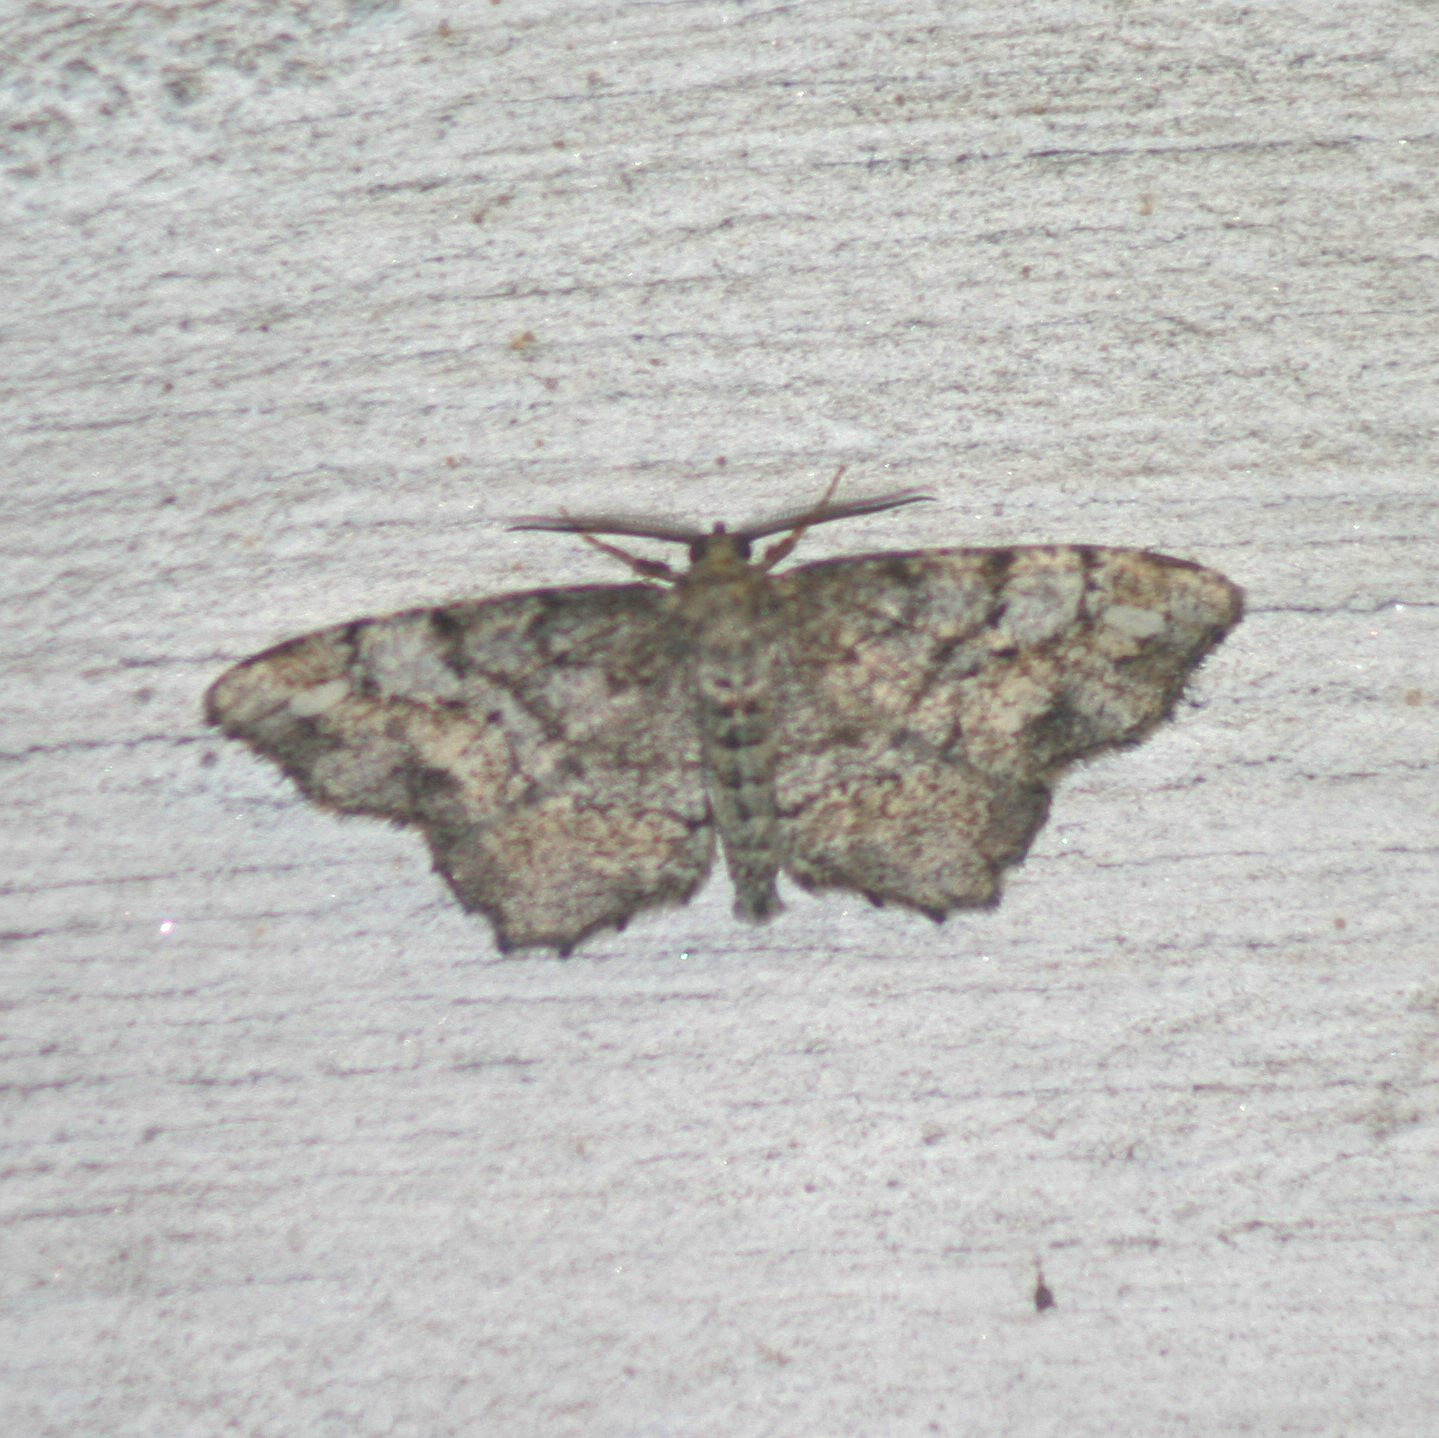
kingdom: Animalia
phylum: Arthropoda
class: Insecta
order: Lepidoptera
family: Geometridae
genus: Anavitrinella
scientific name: Anavitrinella pampinaria
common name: Common gray
